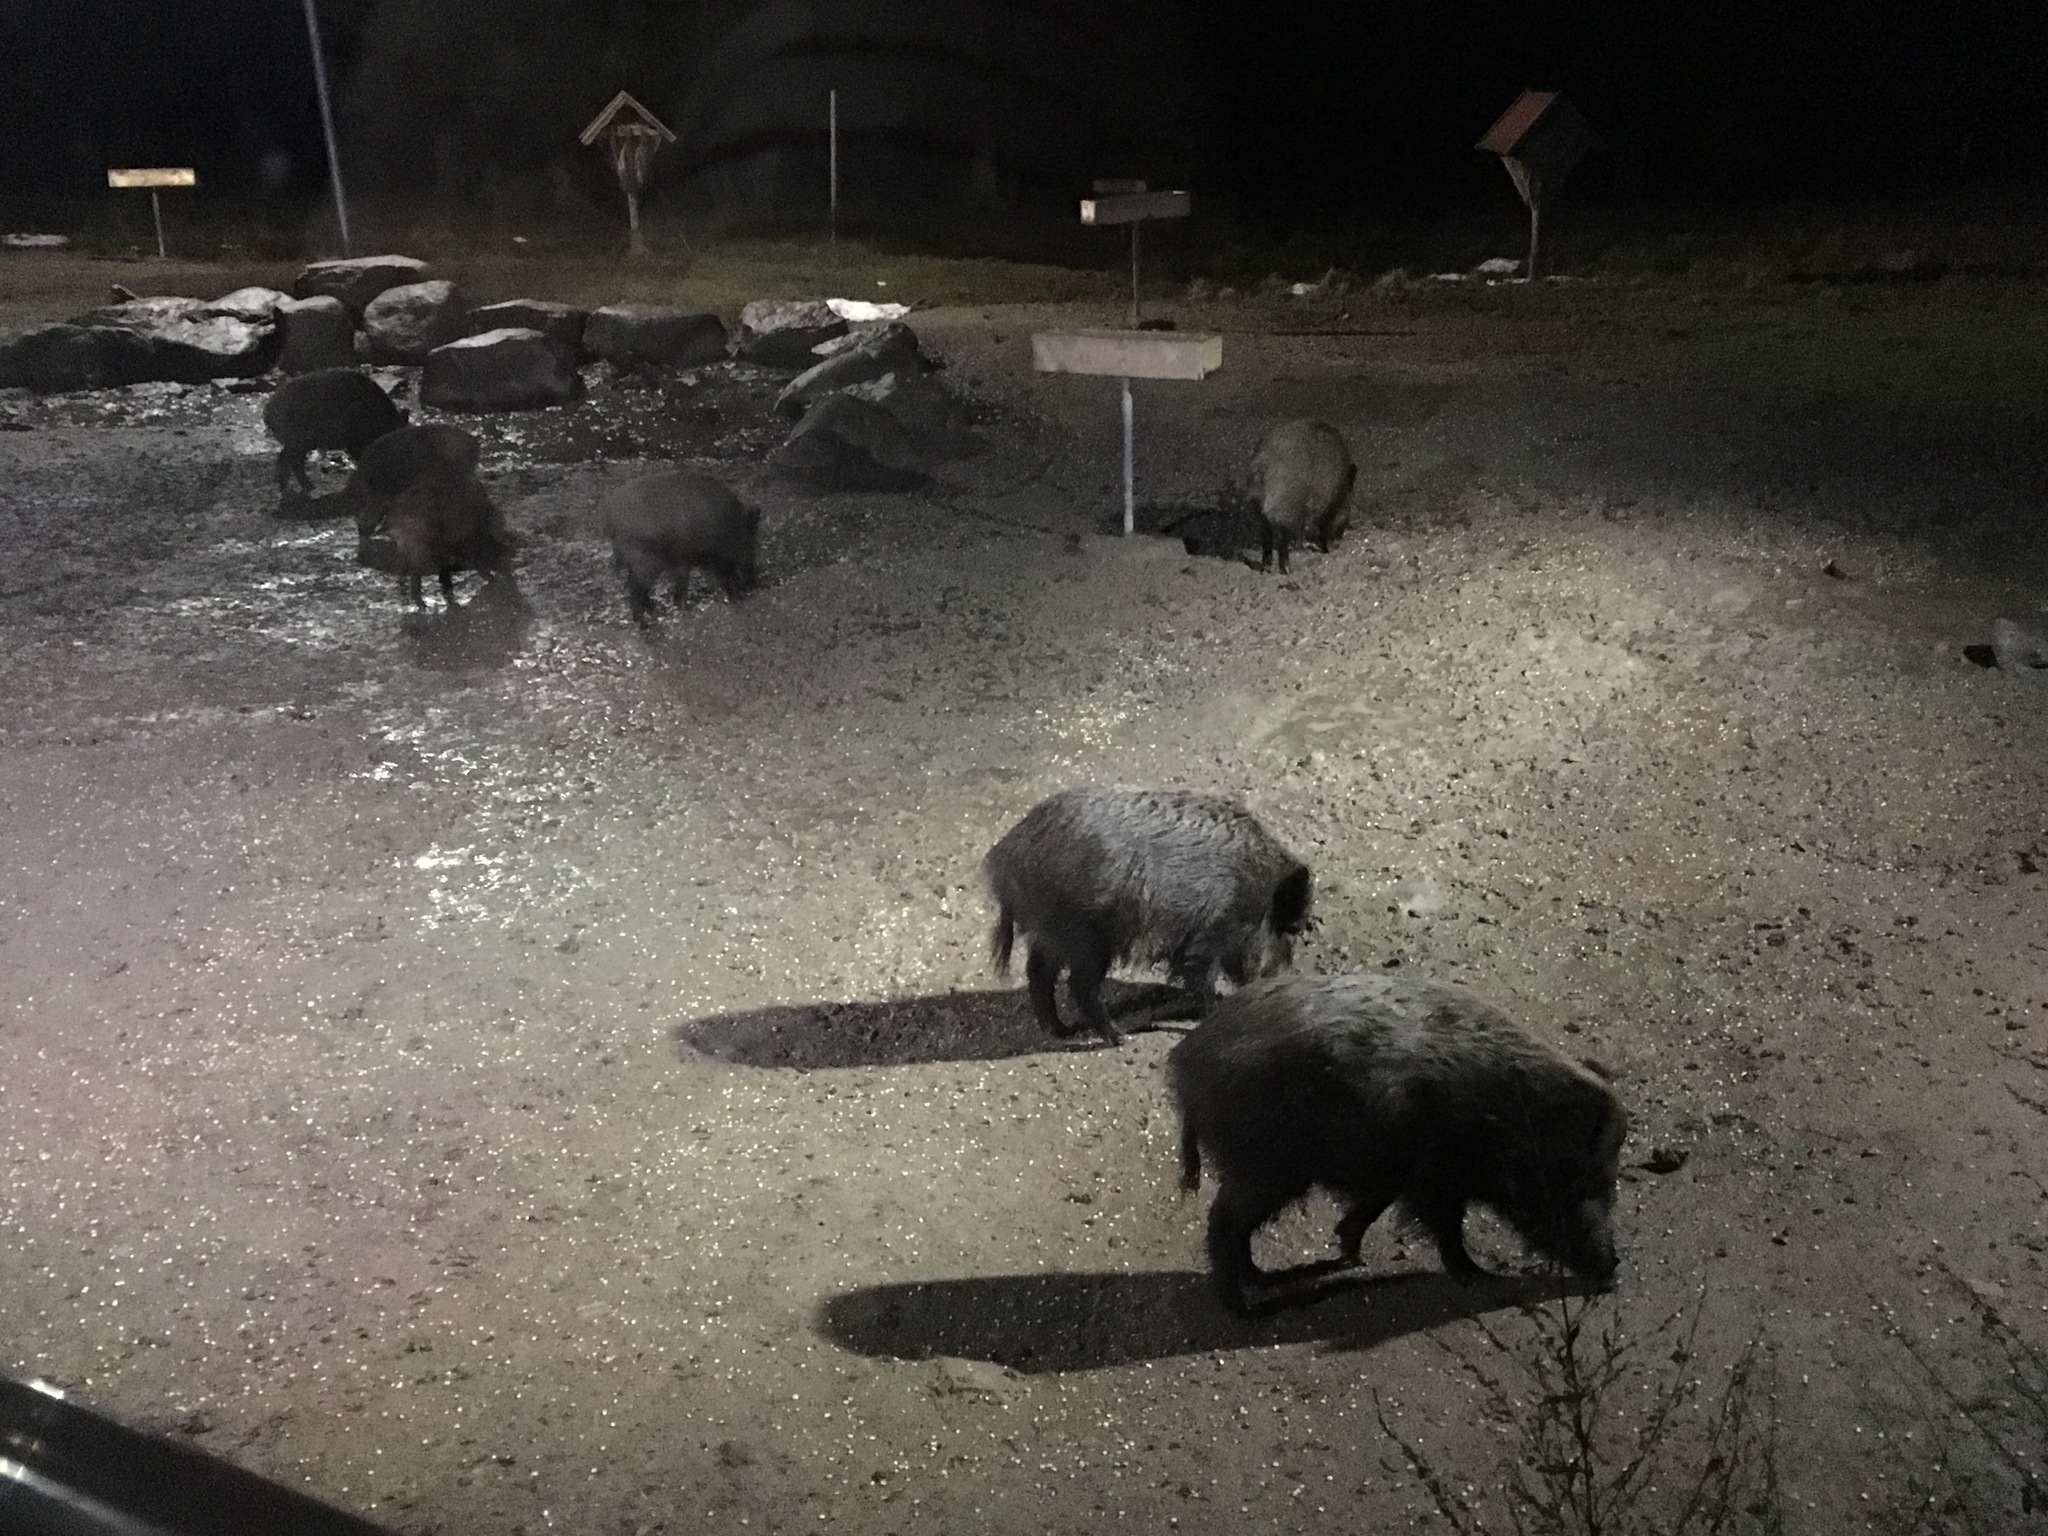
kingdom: Animalia
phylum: Chordata
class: Mammalia
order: Artiodactyla
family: Suidae
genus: Sus
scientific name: Sus scrofa
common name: Wild boar
